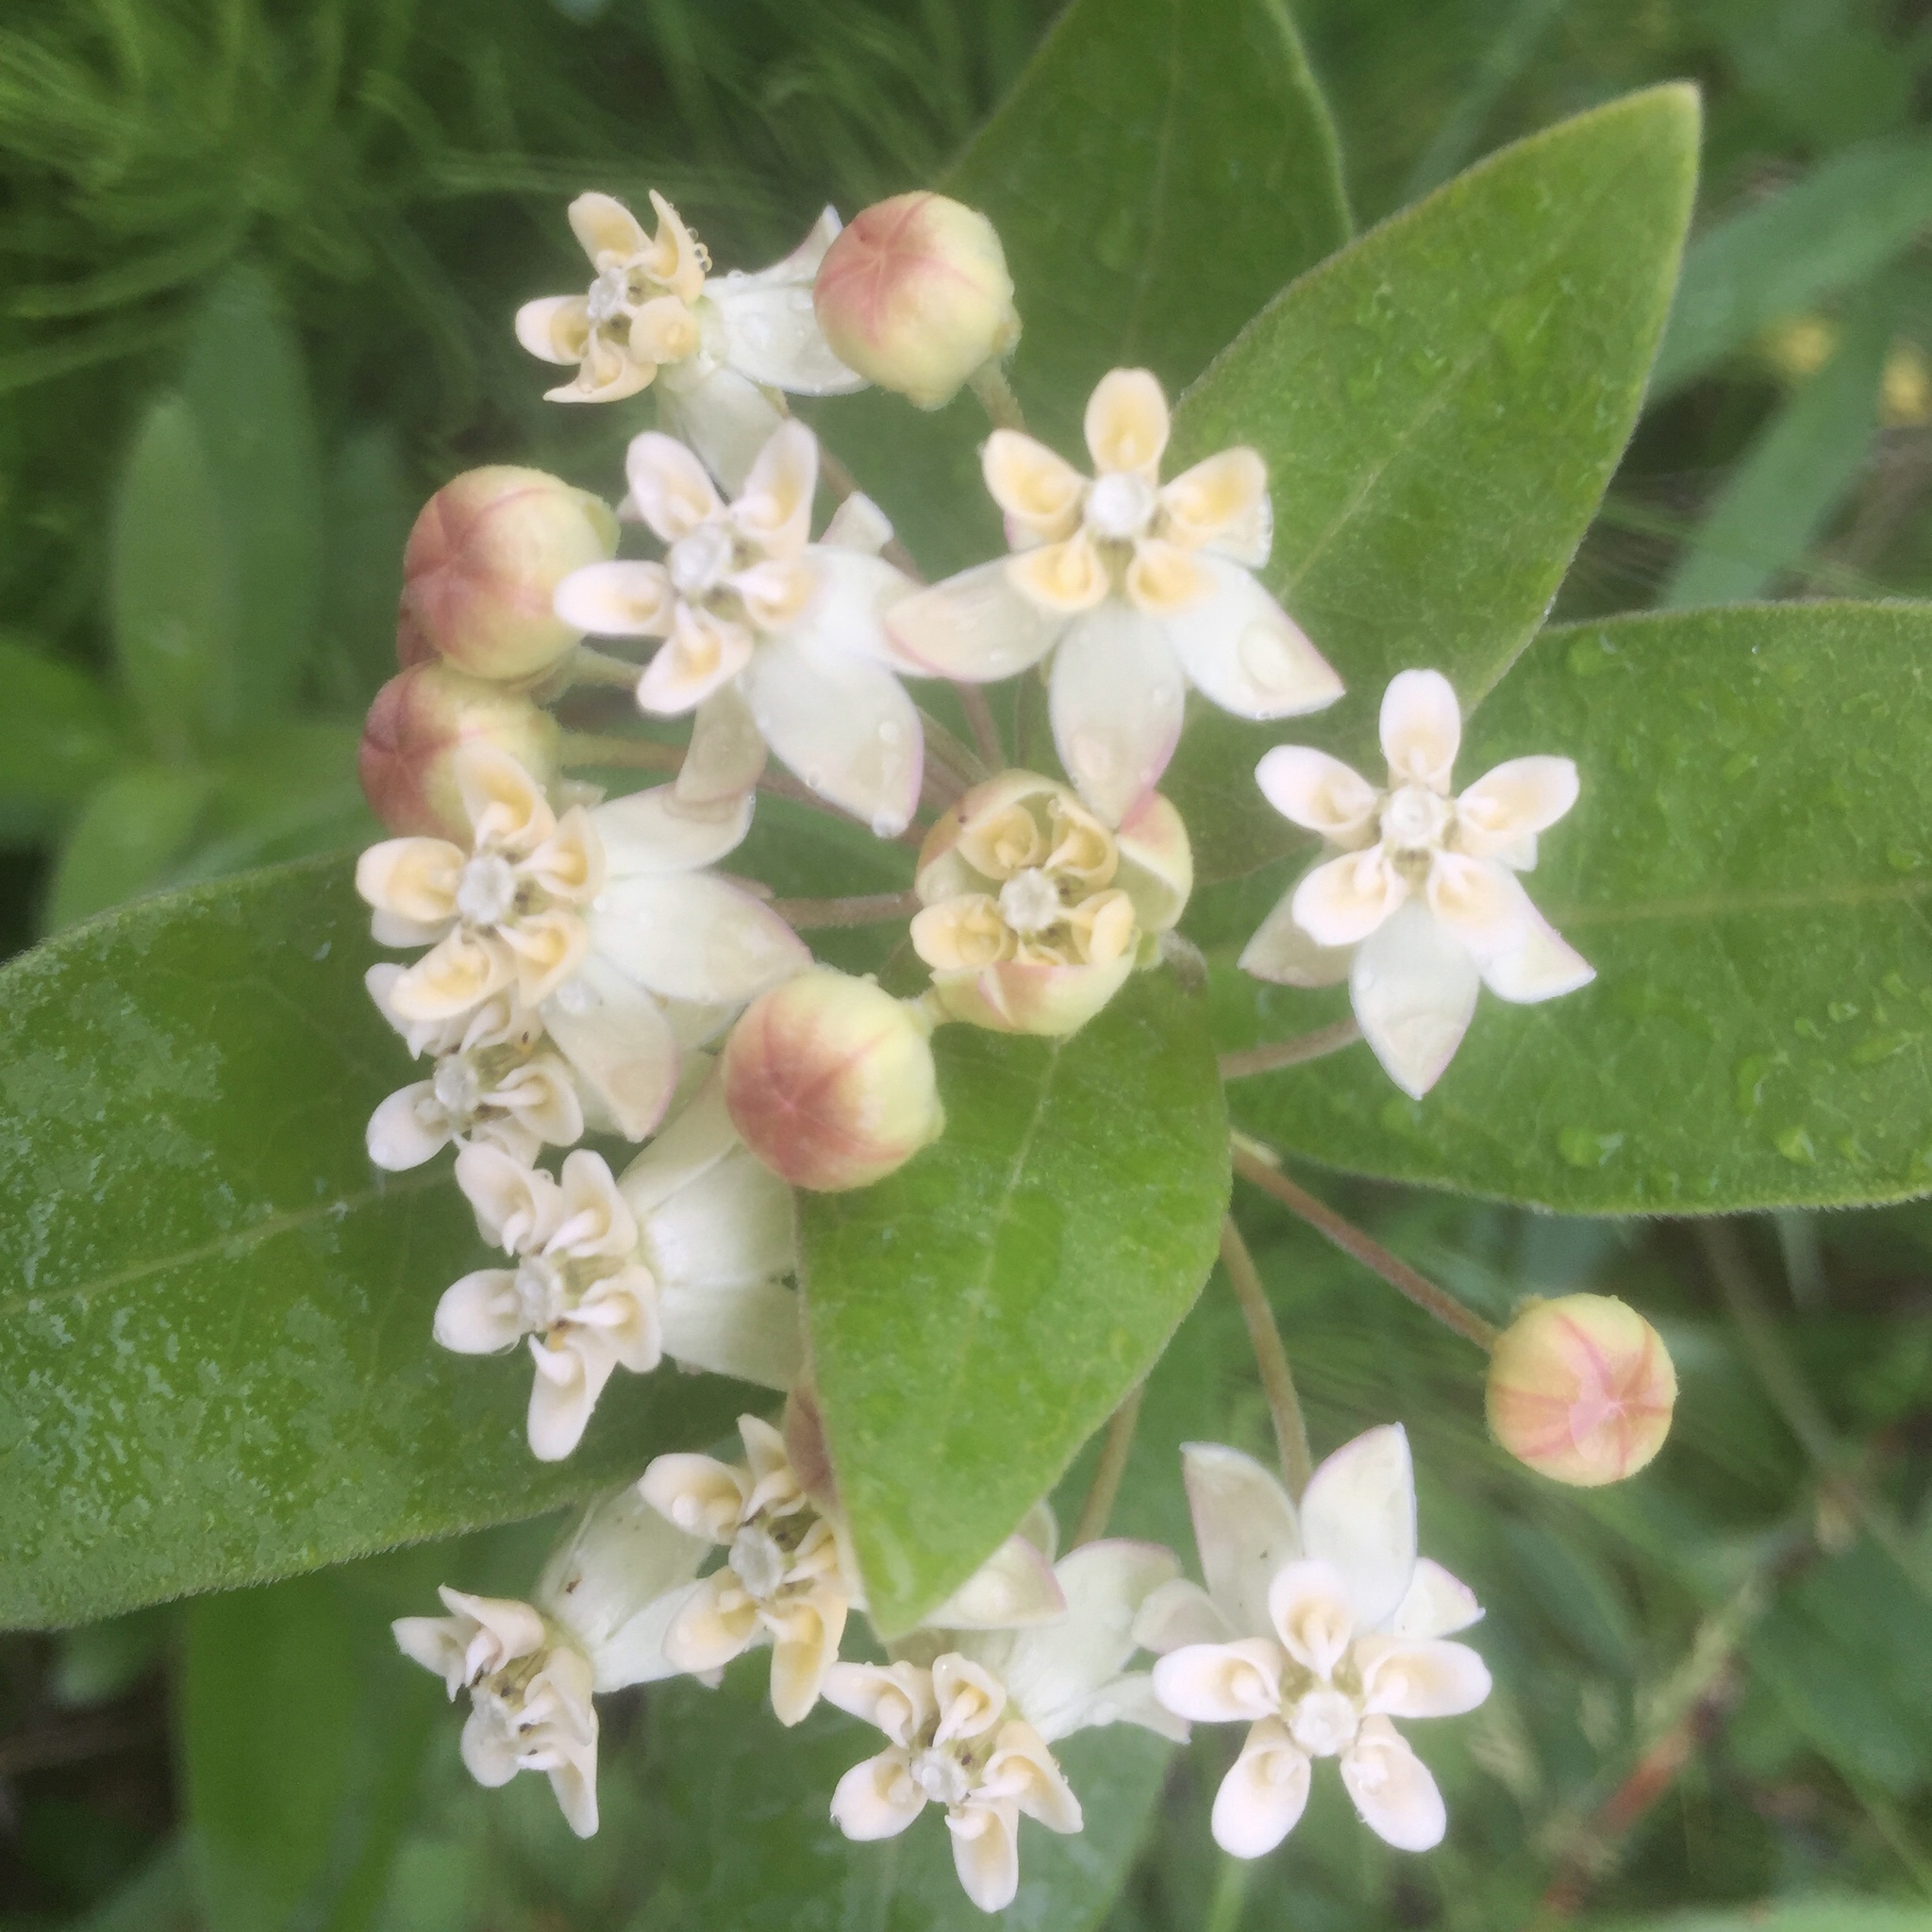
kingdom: Plantae
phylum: Tracheophyta
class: Magnoliopsida
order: Gentianales
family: Apocynaceae
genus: Asclepias
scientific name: Asclepias ovalifolia
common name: Dwarf milkweed
